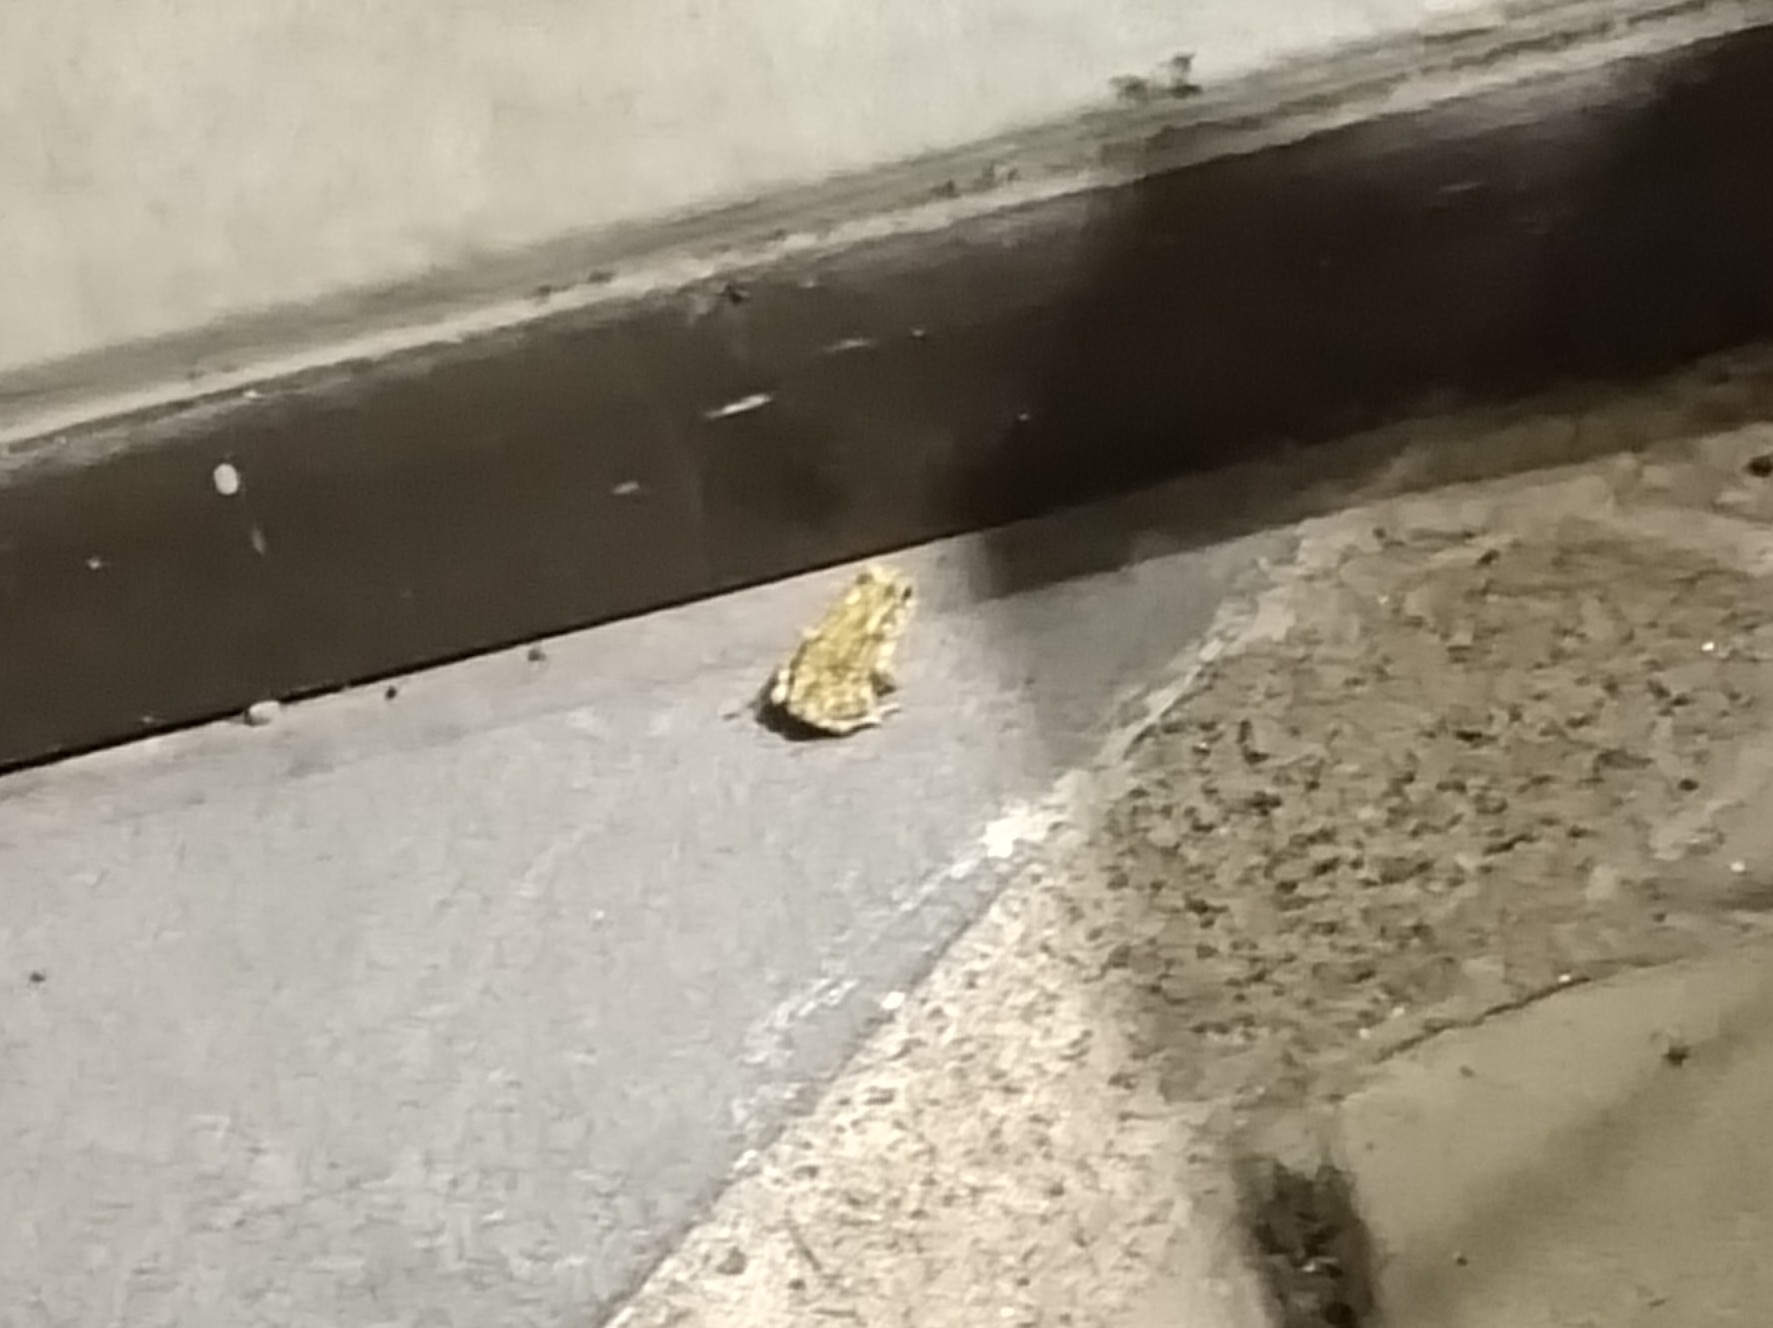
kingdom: Animalia
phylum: Chordata
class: Amphibia
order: Anura
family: Bufonidae
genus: Duttaphrynus
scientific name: Duttaphrynus melanostictus
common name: Common sunda toad
